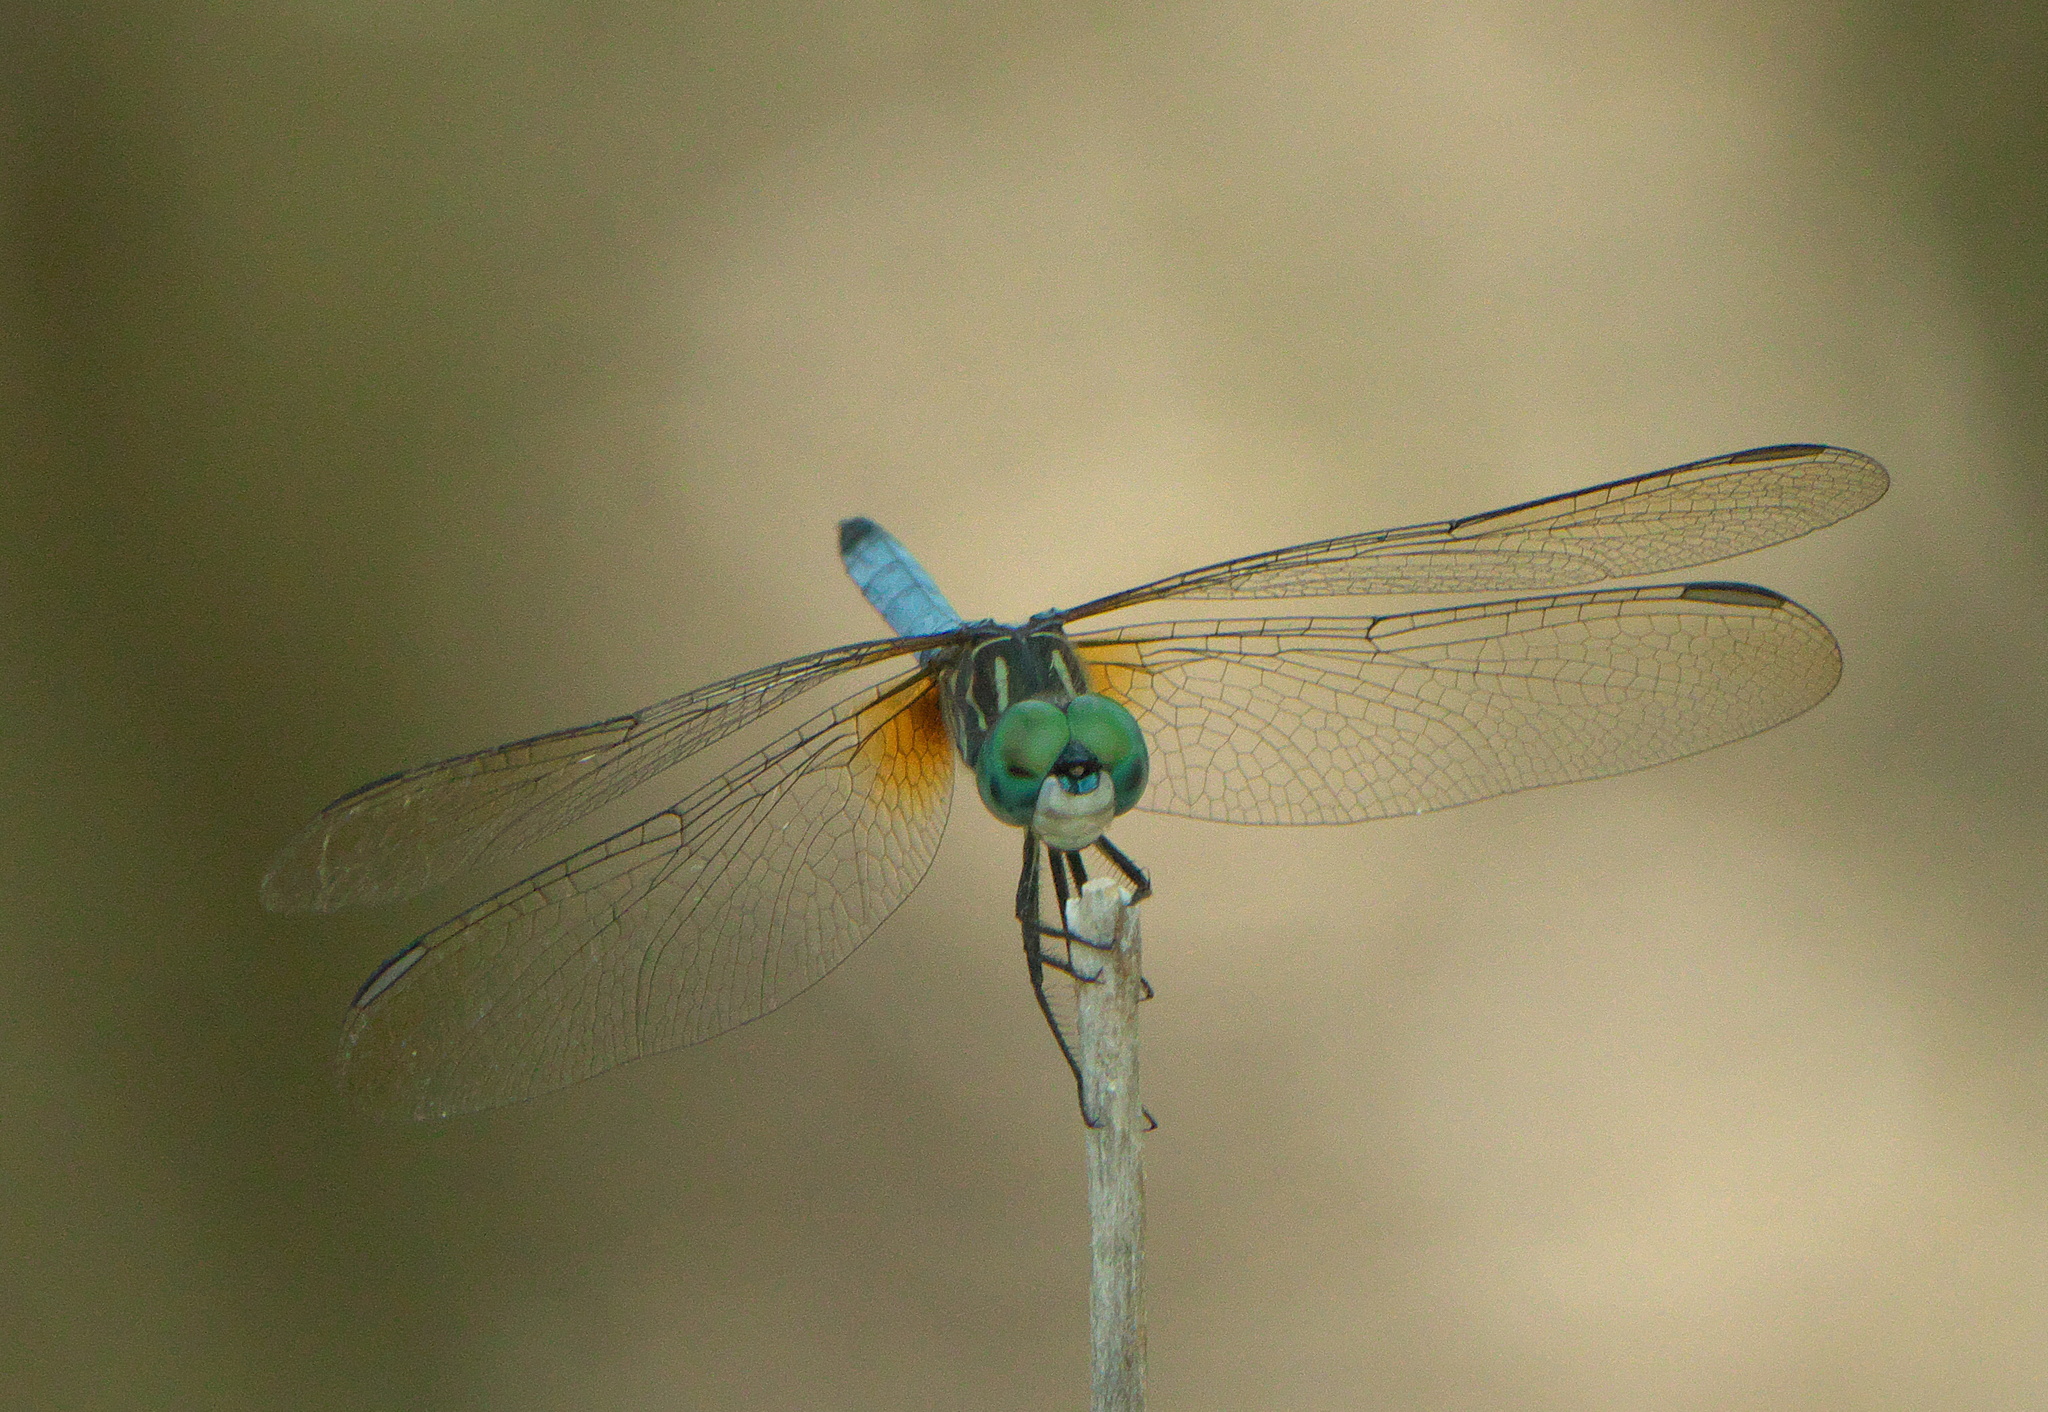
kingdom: Animalia
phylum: Arthropoda
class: Insecta
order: Odonata
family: Libellulidae
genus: Pachydiplax
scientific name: Pachydiplax longipennis
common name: Blue dasher
